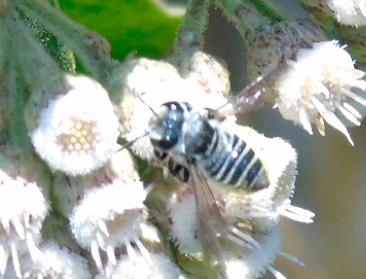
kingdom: Animalia
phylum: Arthropoda
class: Insecta
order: Hymenoptera
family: Megachilidae
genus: Megachile
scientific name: Megachile
